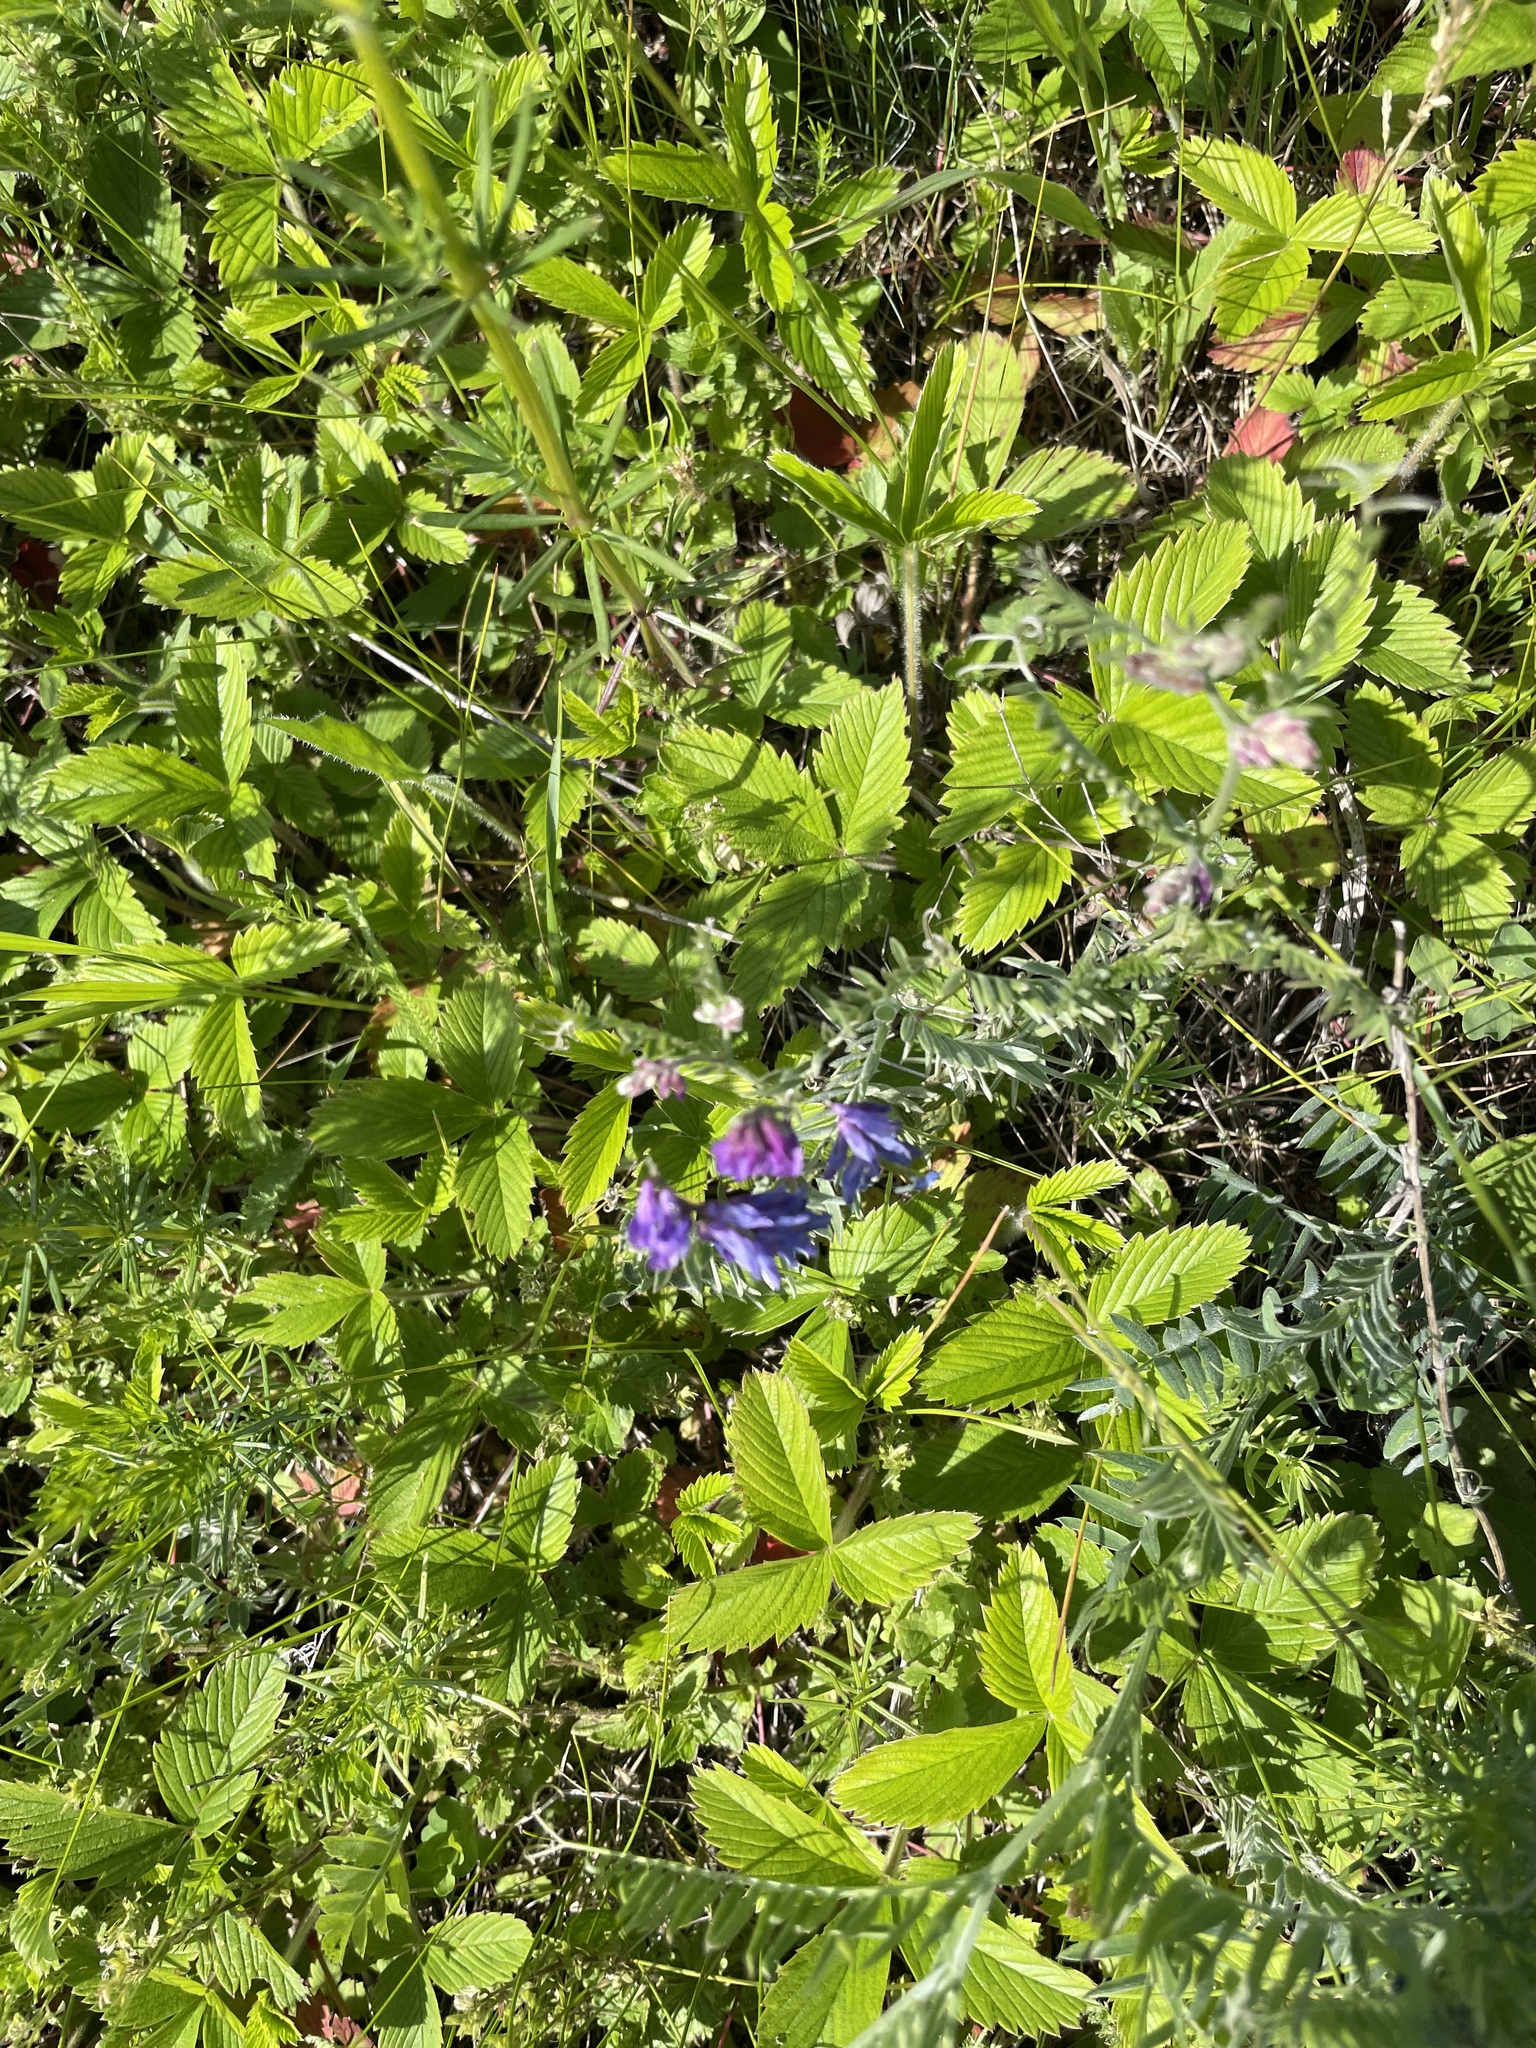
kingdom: Plantae
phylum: Tracheophyta
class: Magnoliopsida
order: Fabales
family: Fabaceae
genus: Vicia
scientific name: Vicia cracca
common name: Bird vetch
